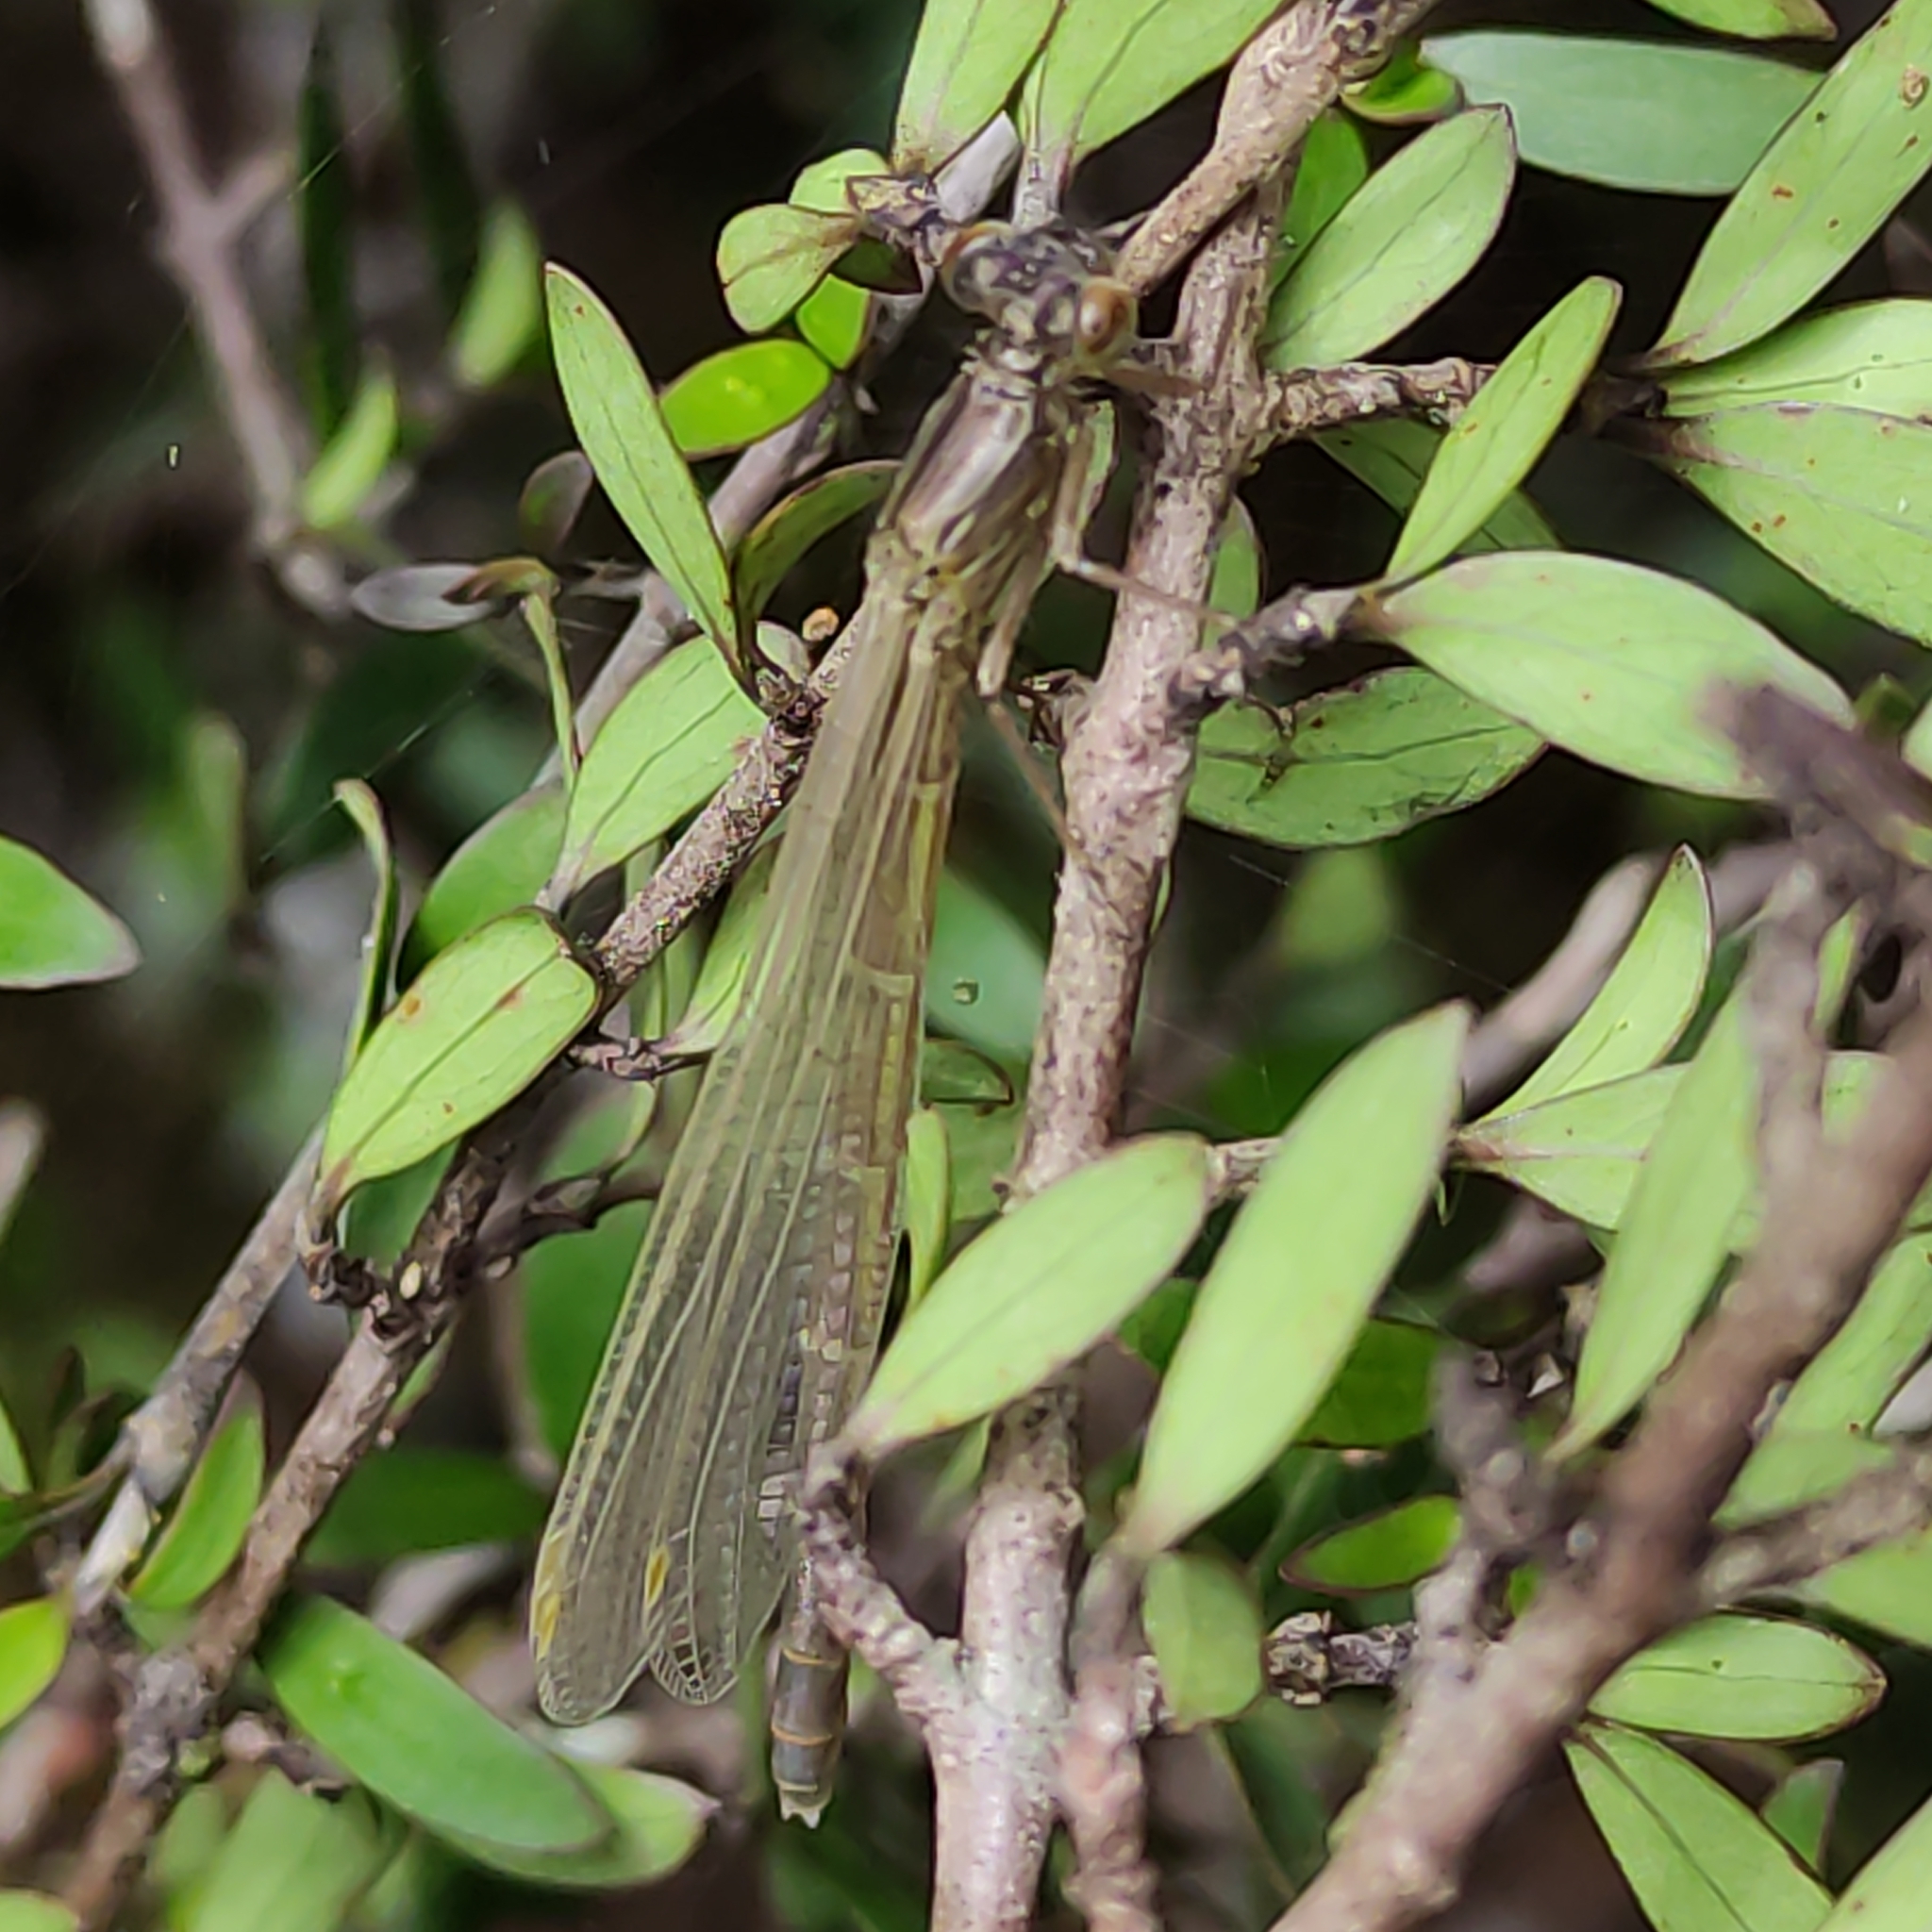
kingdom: Animalia
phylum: Arthropoda
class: Insecta
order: Odonata
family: Coenagrionidae
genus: Xanthocnemis
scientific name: Xanthocnemis zealandica
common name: Common redcoat damselfly
